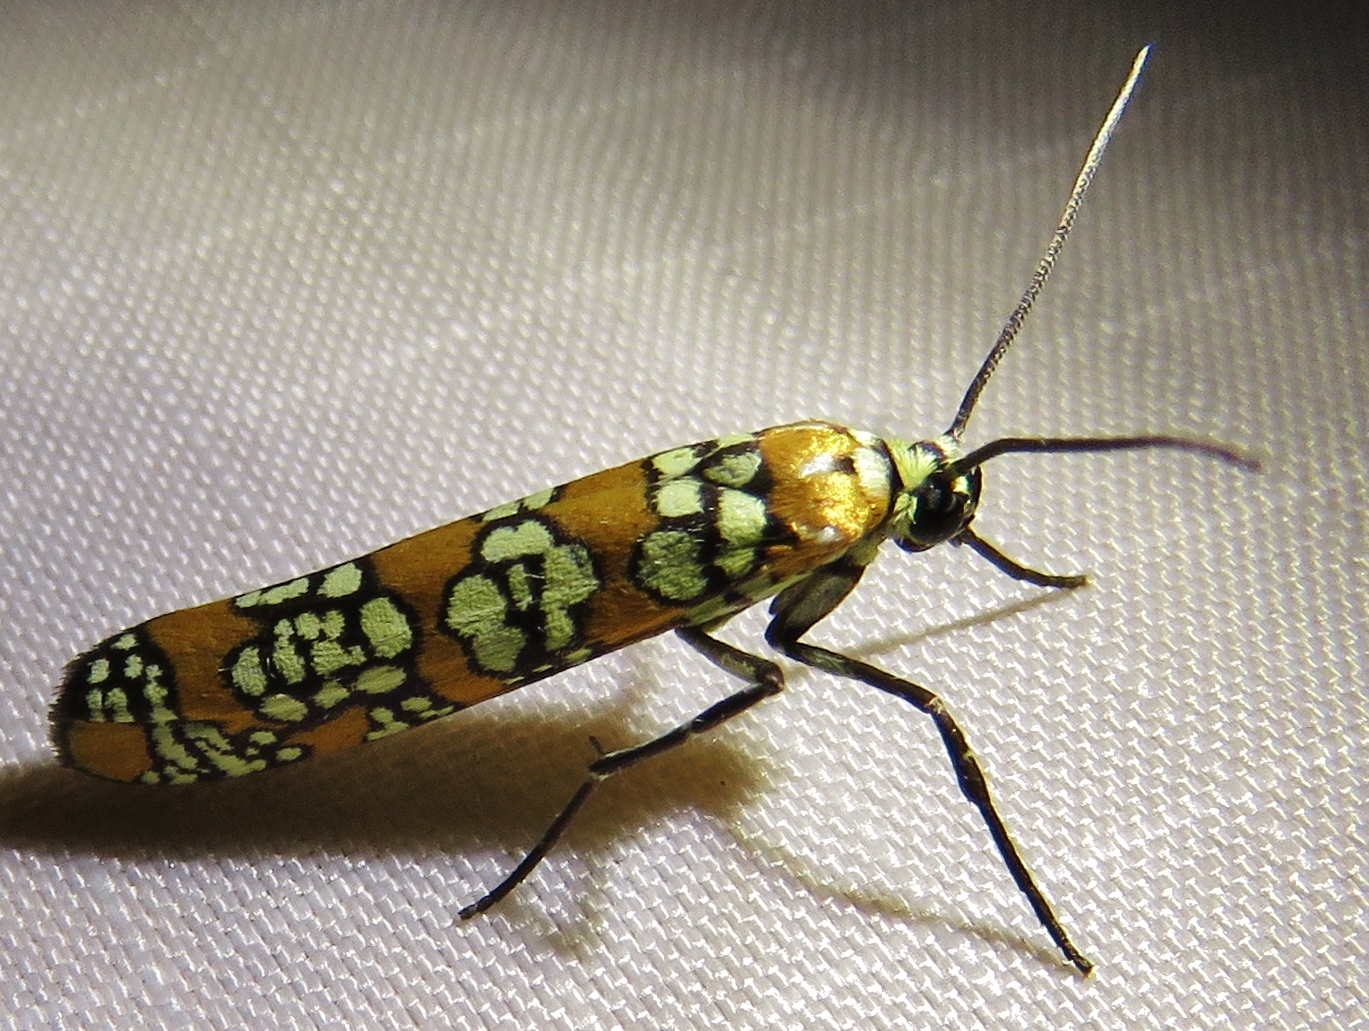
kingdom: Animalia
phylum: Arthropoda
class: Insecta
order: Lepidoptera
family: Attevidae
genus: Atteva
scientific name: Atteva punctella
